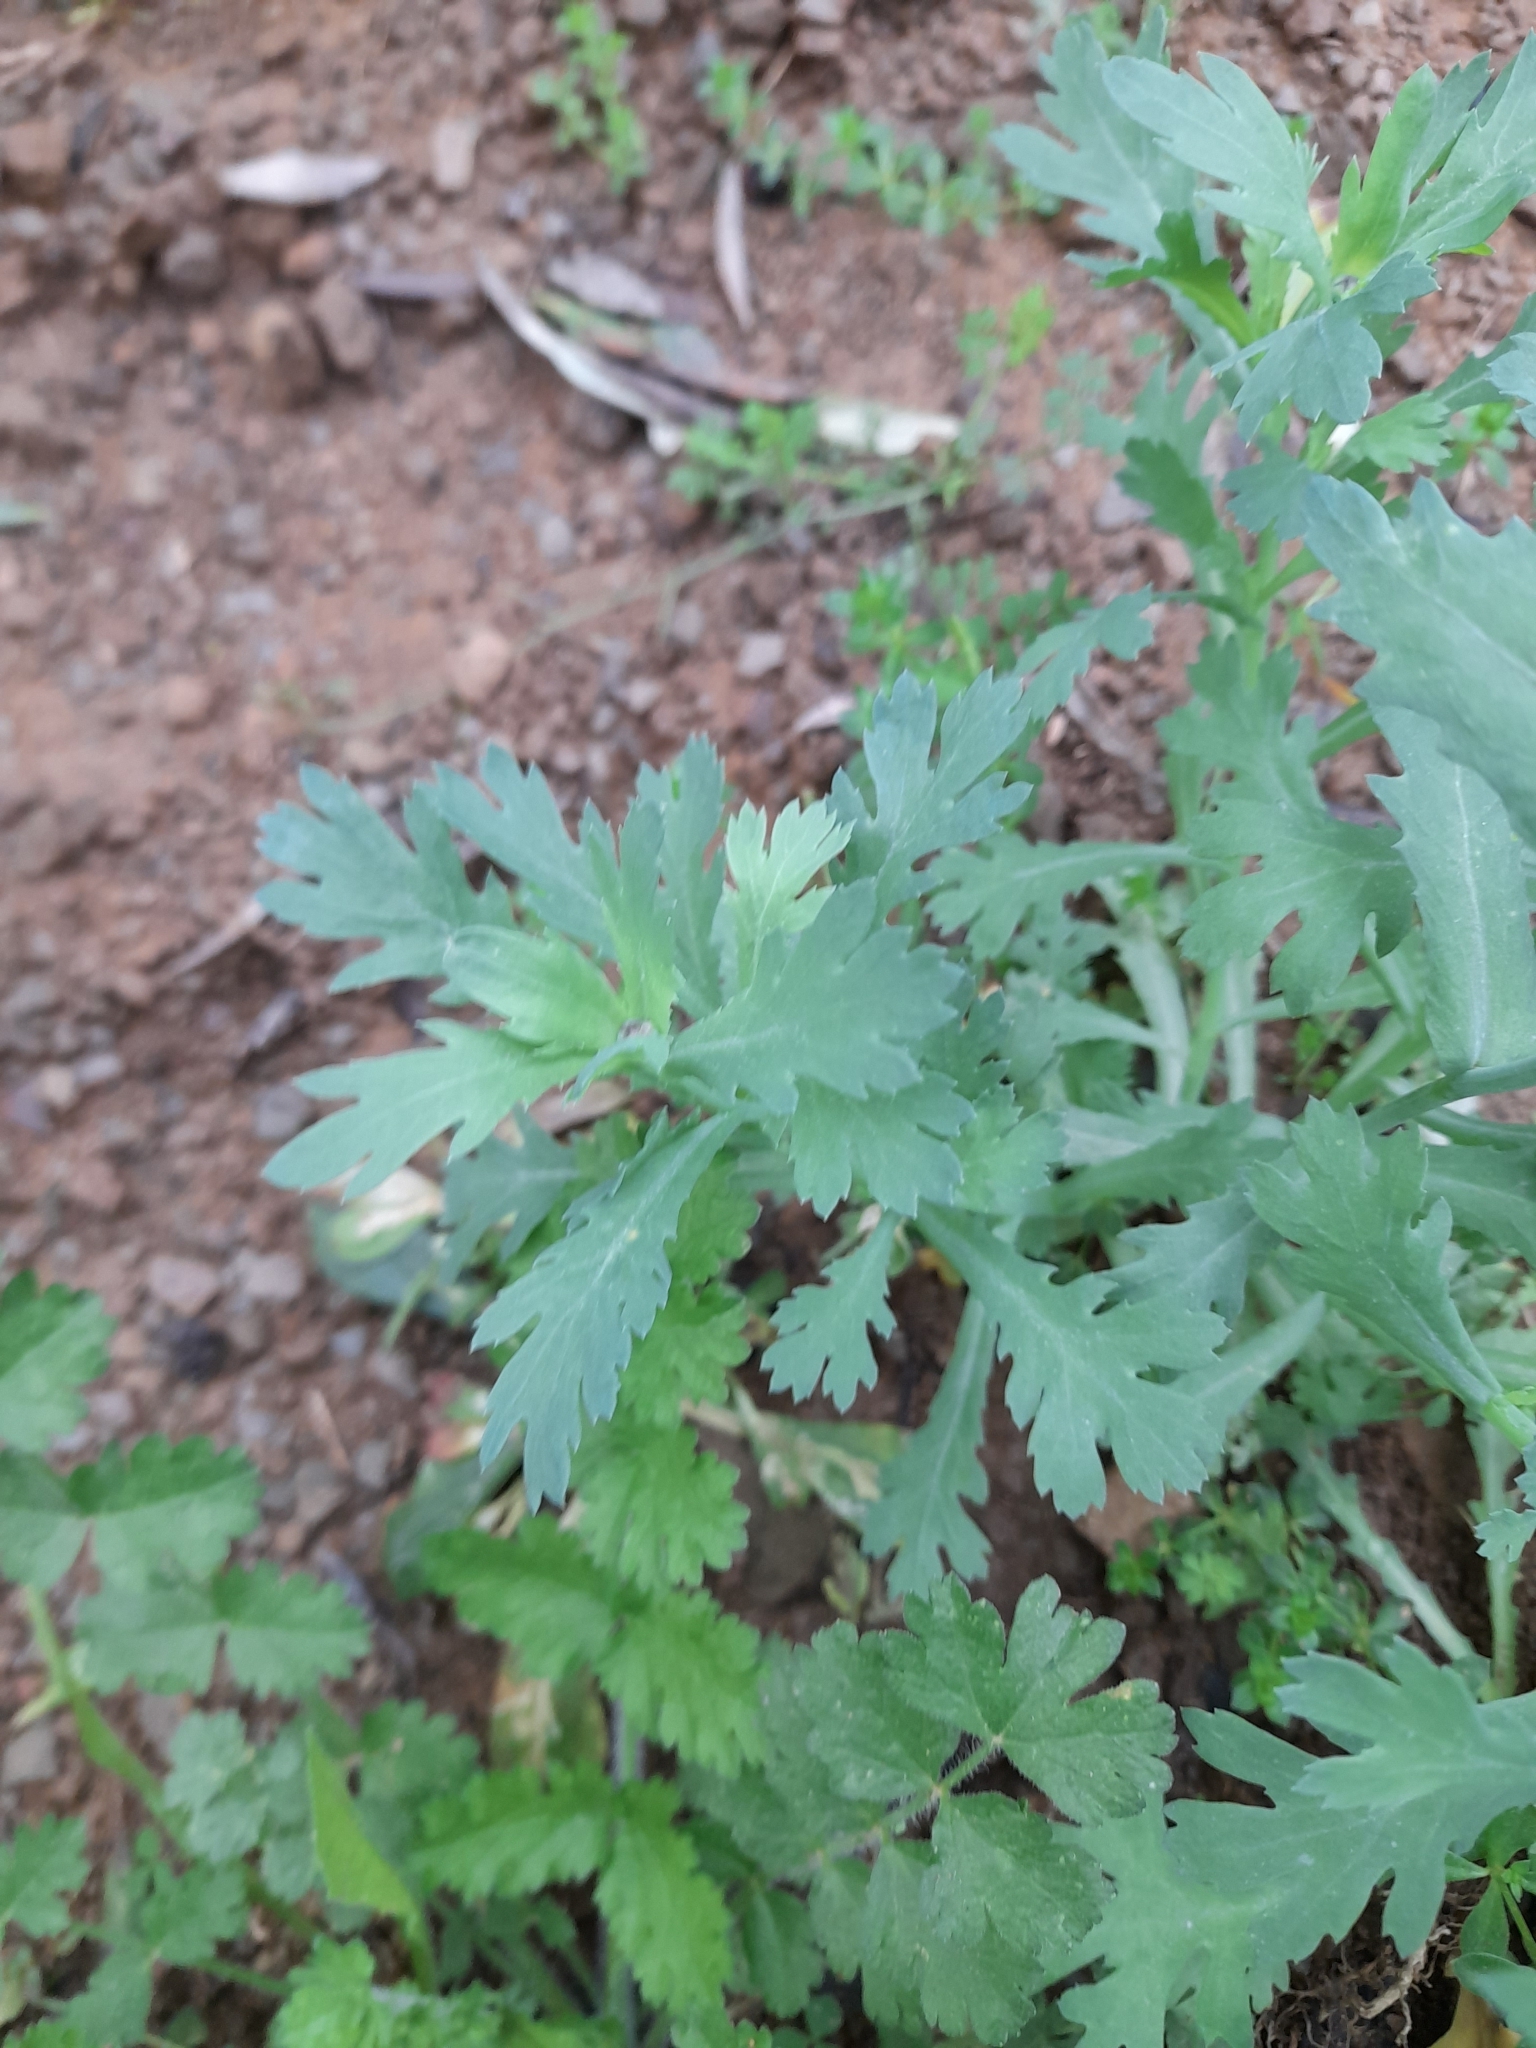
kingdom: Plantae
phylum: Tracheophyta
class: Magnoliopsida
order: Asterales
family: Asteraceae
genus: Glebionis
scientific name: Glebionis segetum
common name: Corndaisy
